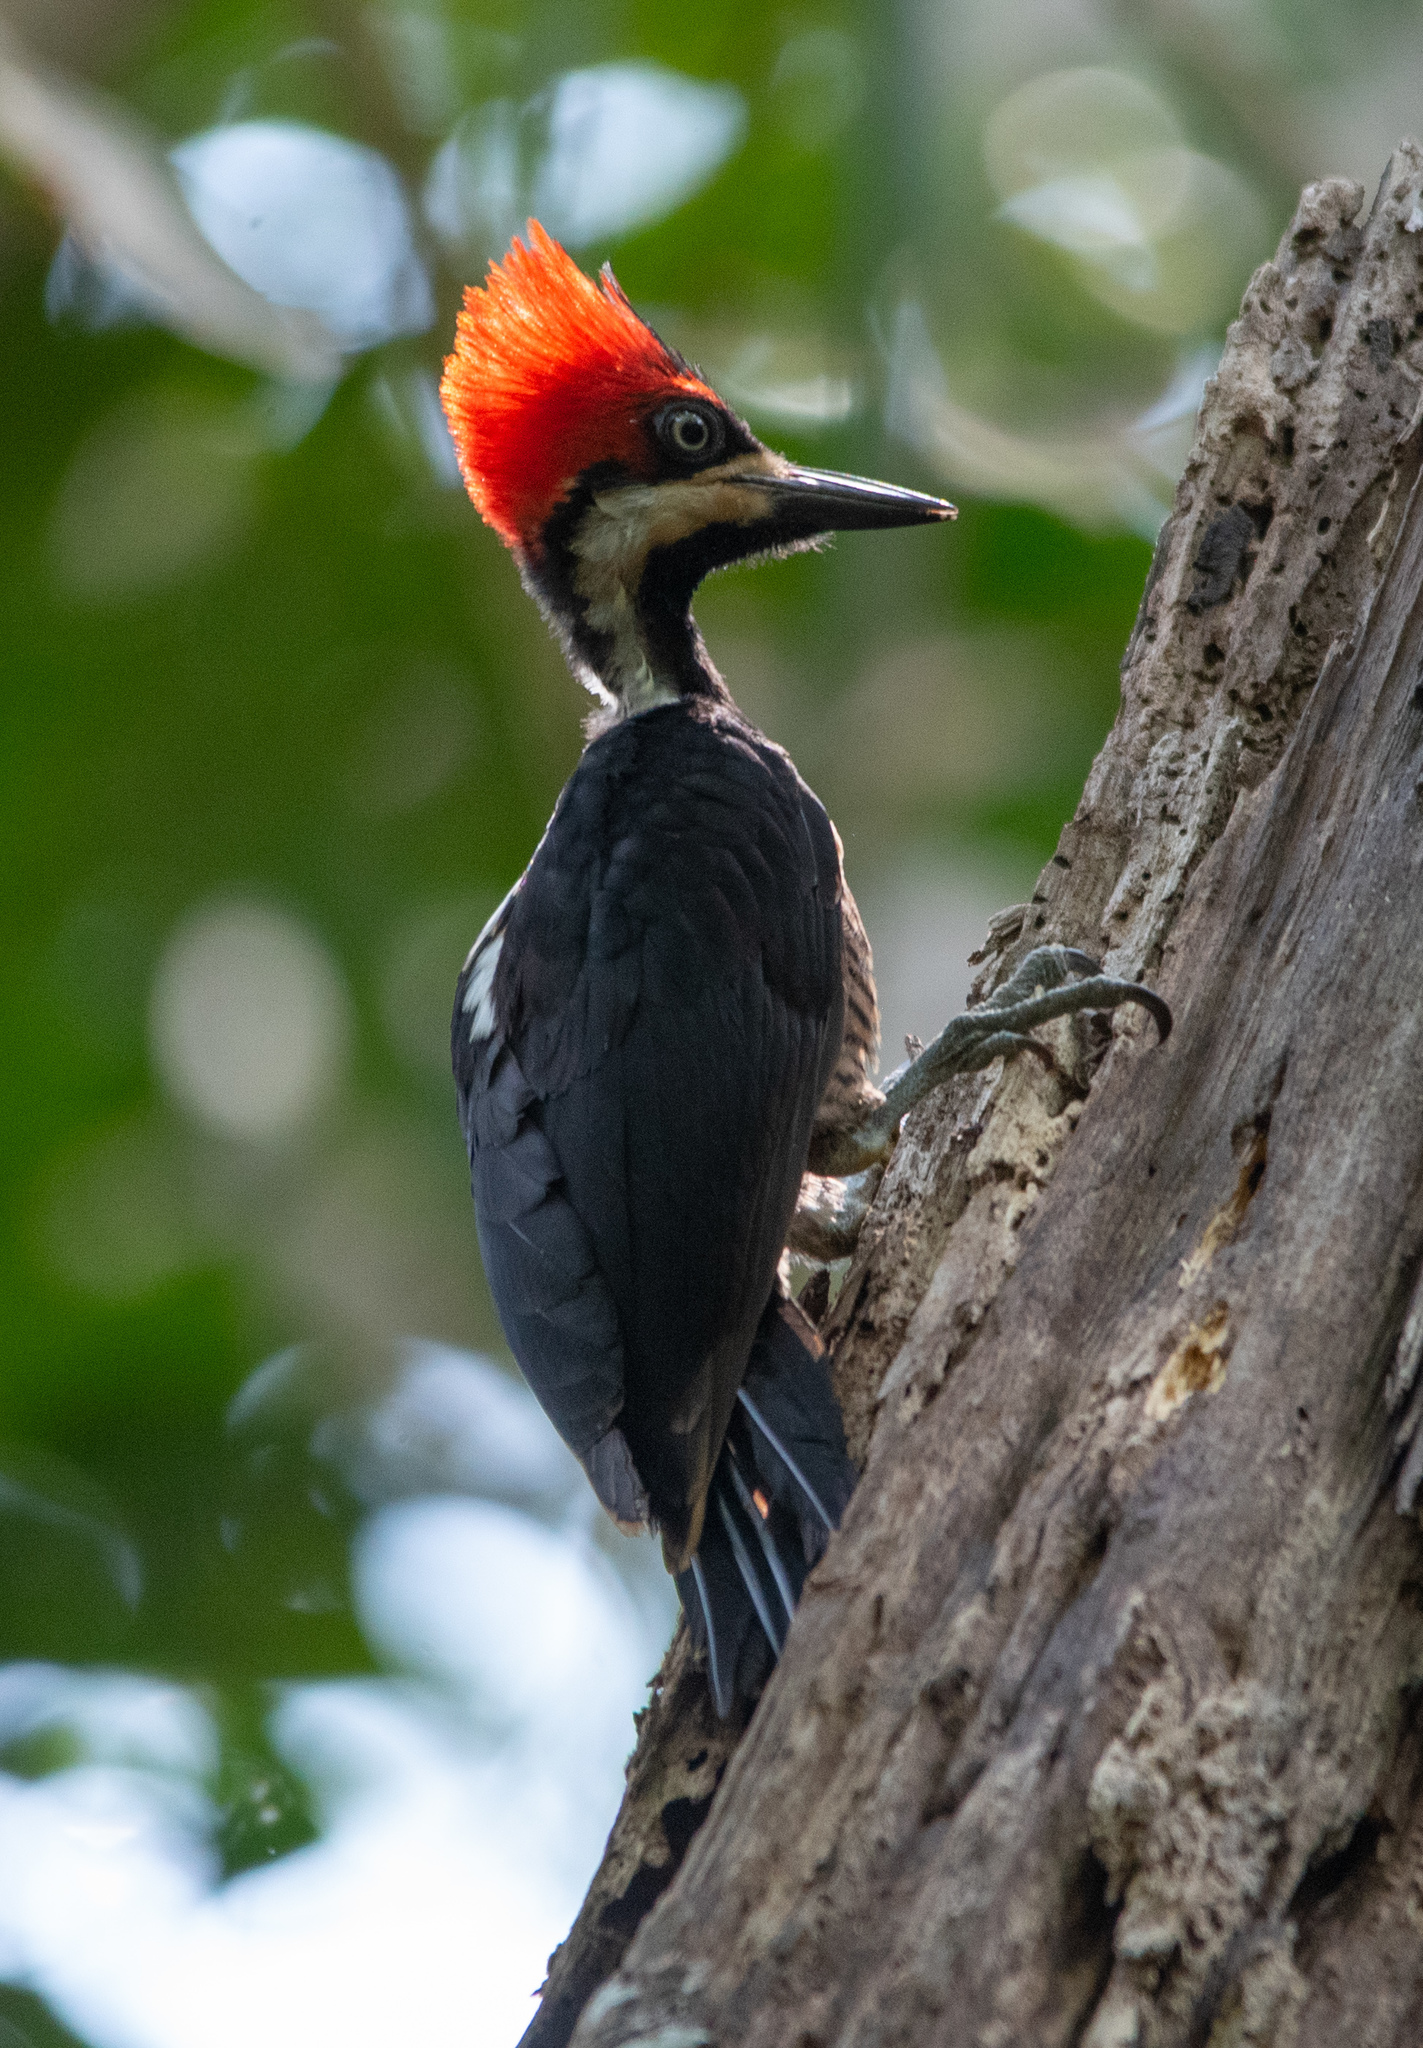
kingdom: Animalia
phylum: Chordata
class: Aves
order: Piciformes
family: Picidae
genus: Dryocopus
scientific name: Dryocopus lineatus
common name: Lineated woodpecker
